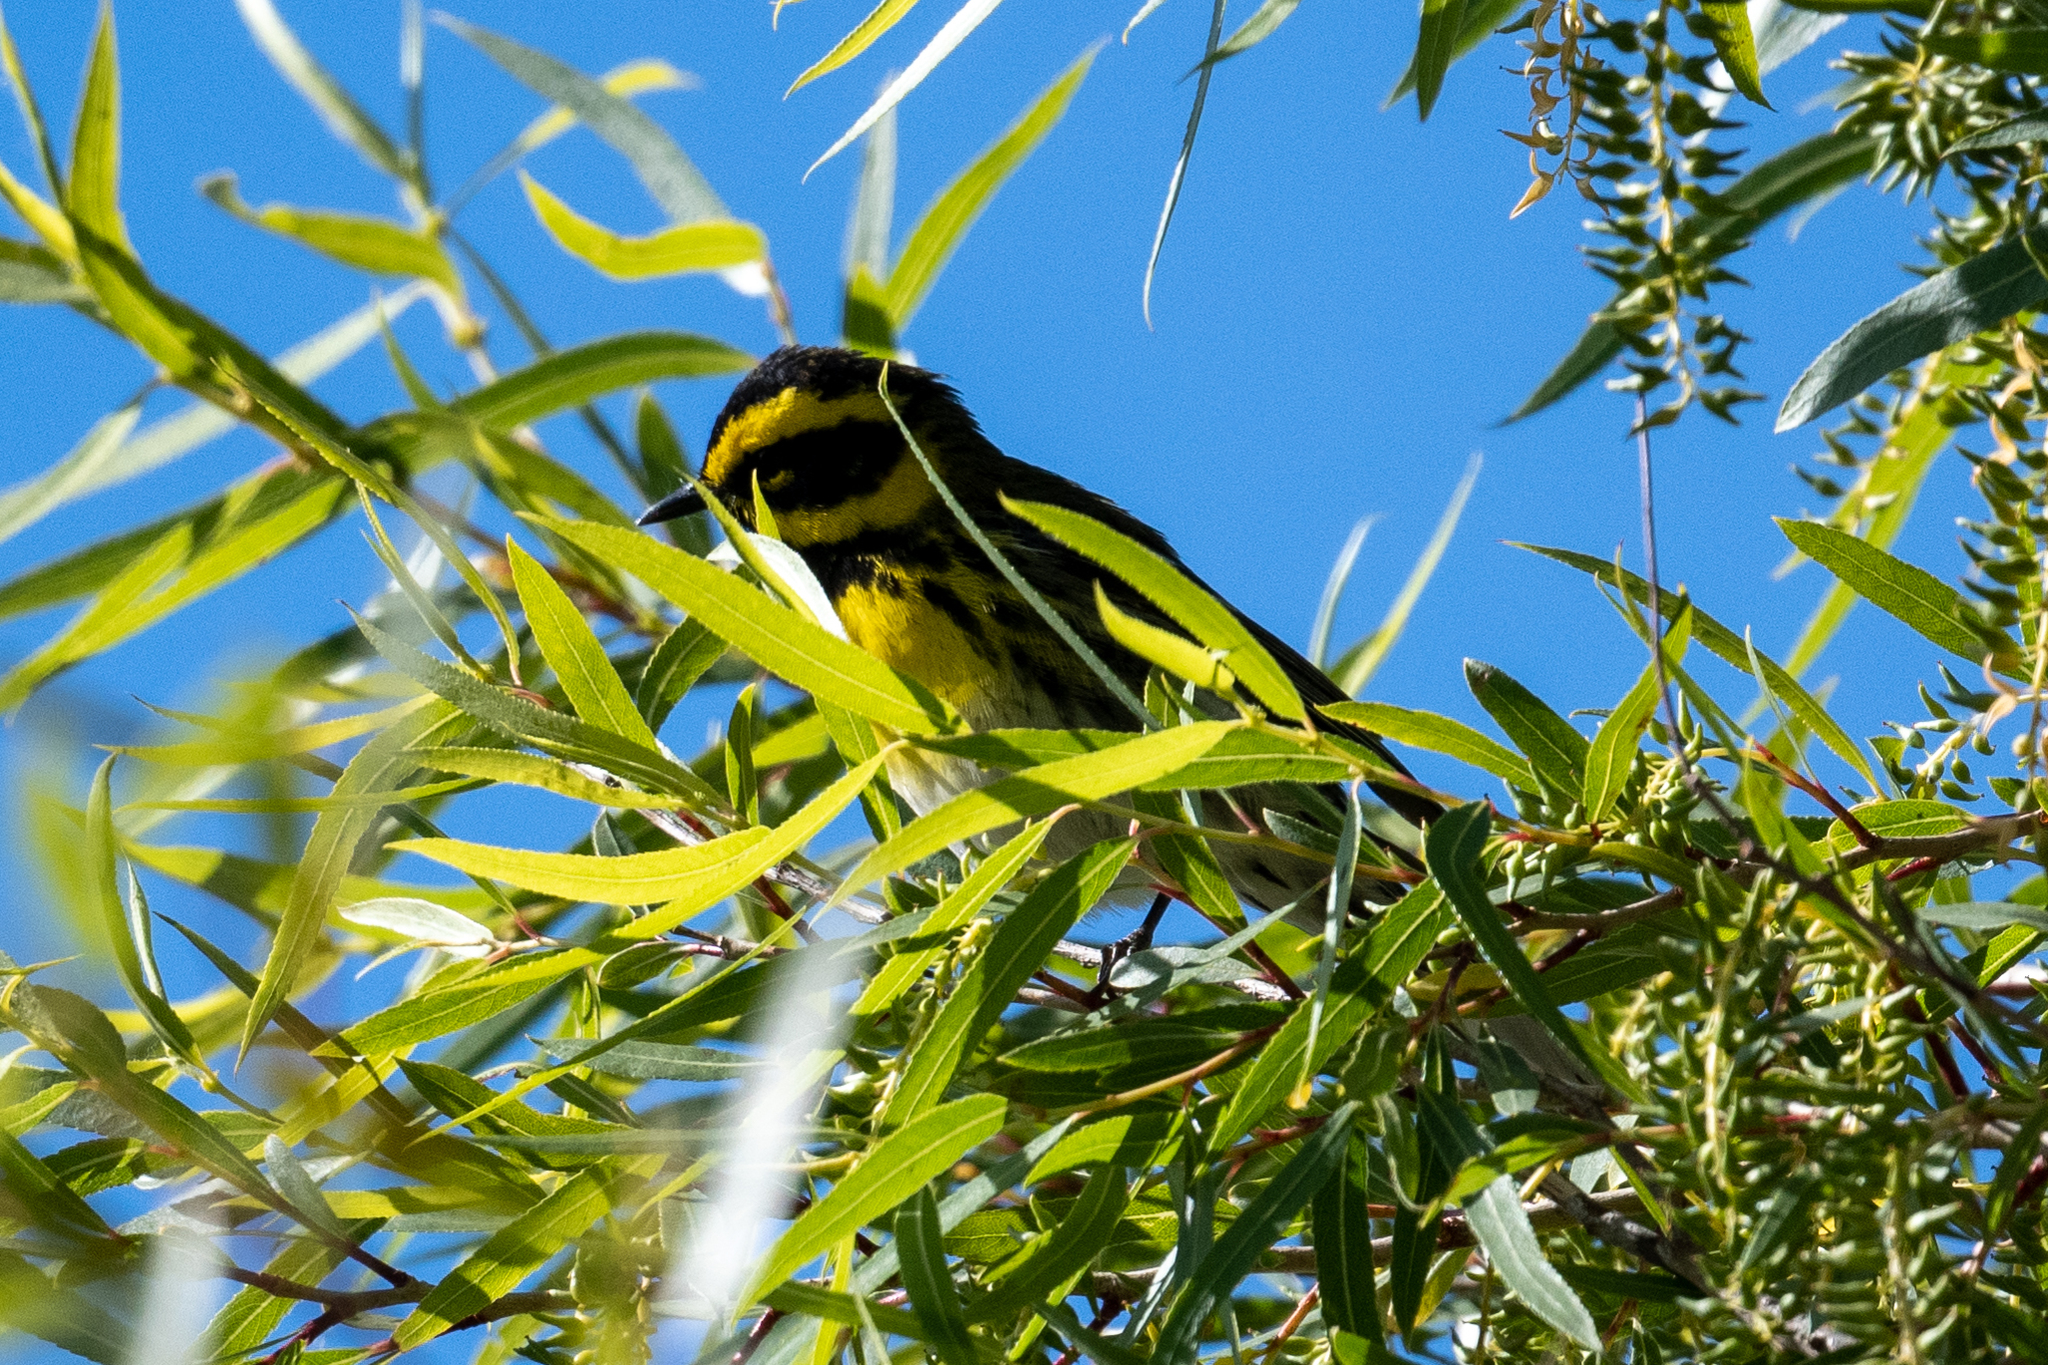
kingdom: Animalia
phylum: Chordata
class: Aves
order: Passeriformes
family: Parulidae
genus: Setophaga
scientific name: Setophaga townsendi
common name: Townsend's warbler
